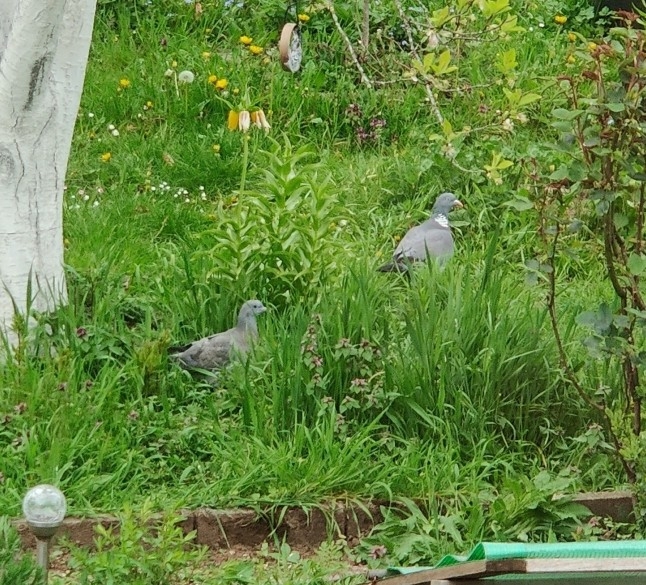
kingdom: Animalia
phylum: Chordata
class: Aves
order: Columbiformes
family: Columbidae
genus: Columba
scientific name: Columba palumbus
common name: Common wood pigeon
